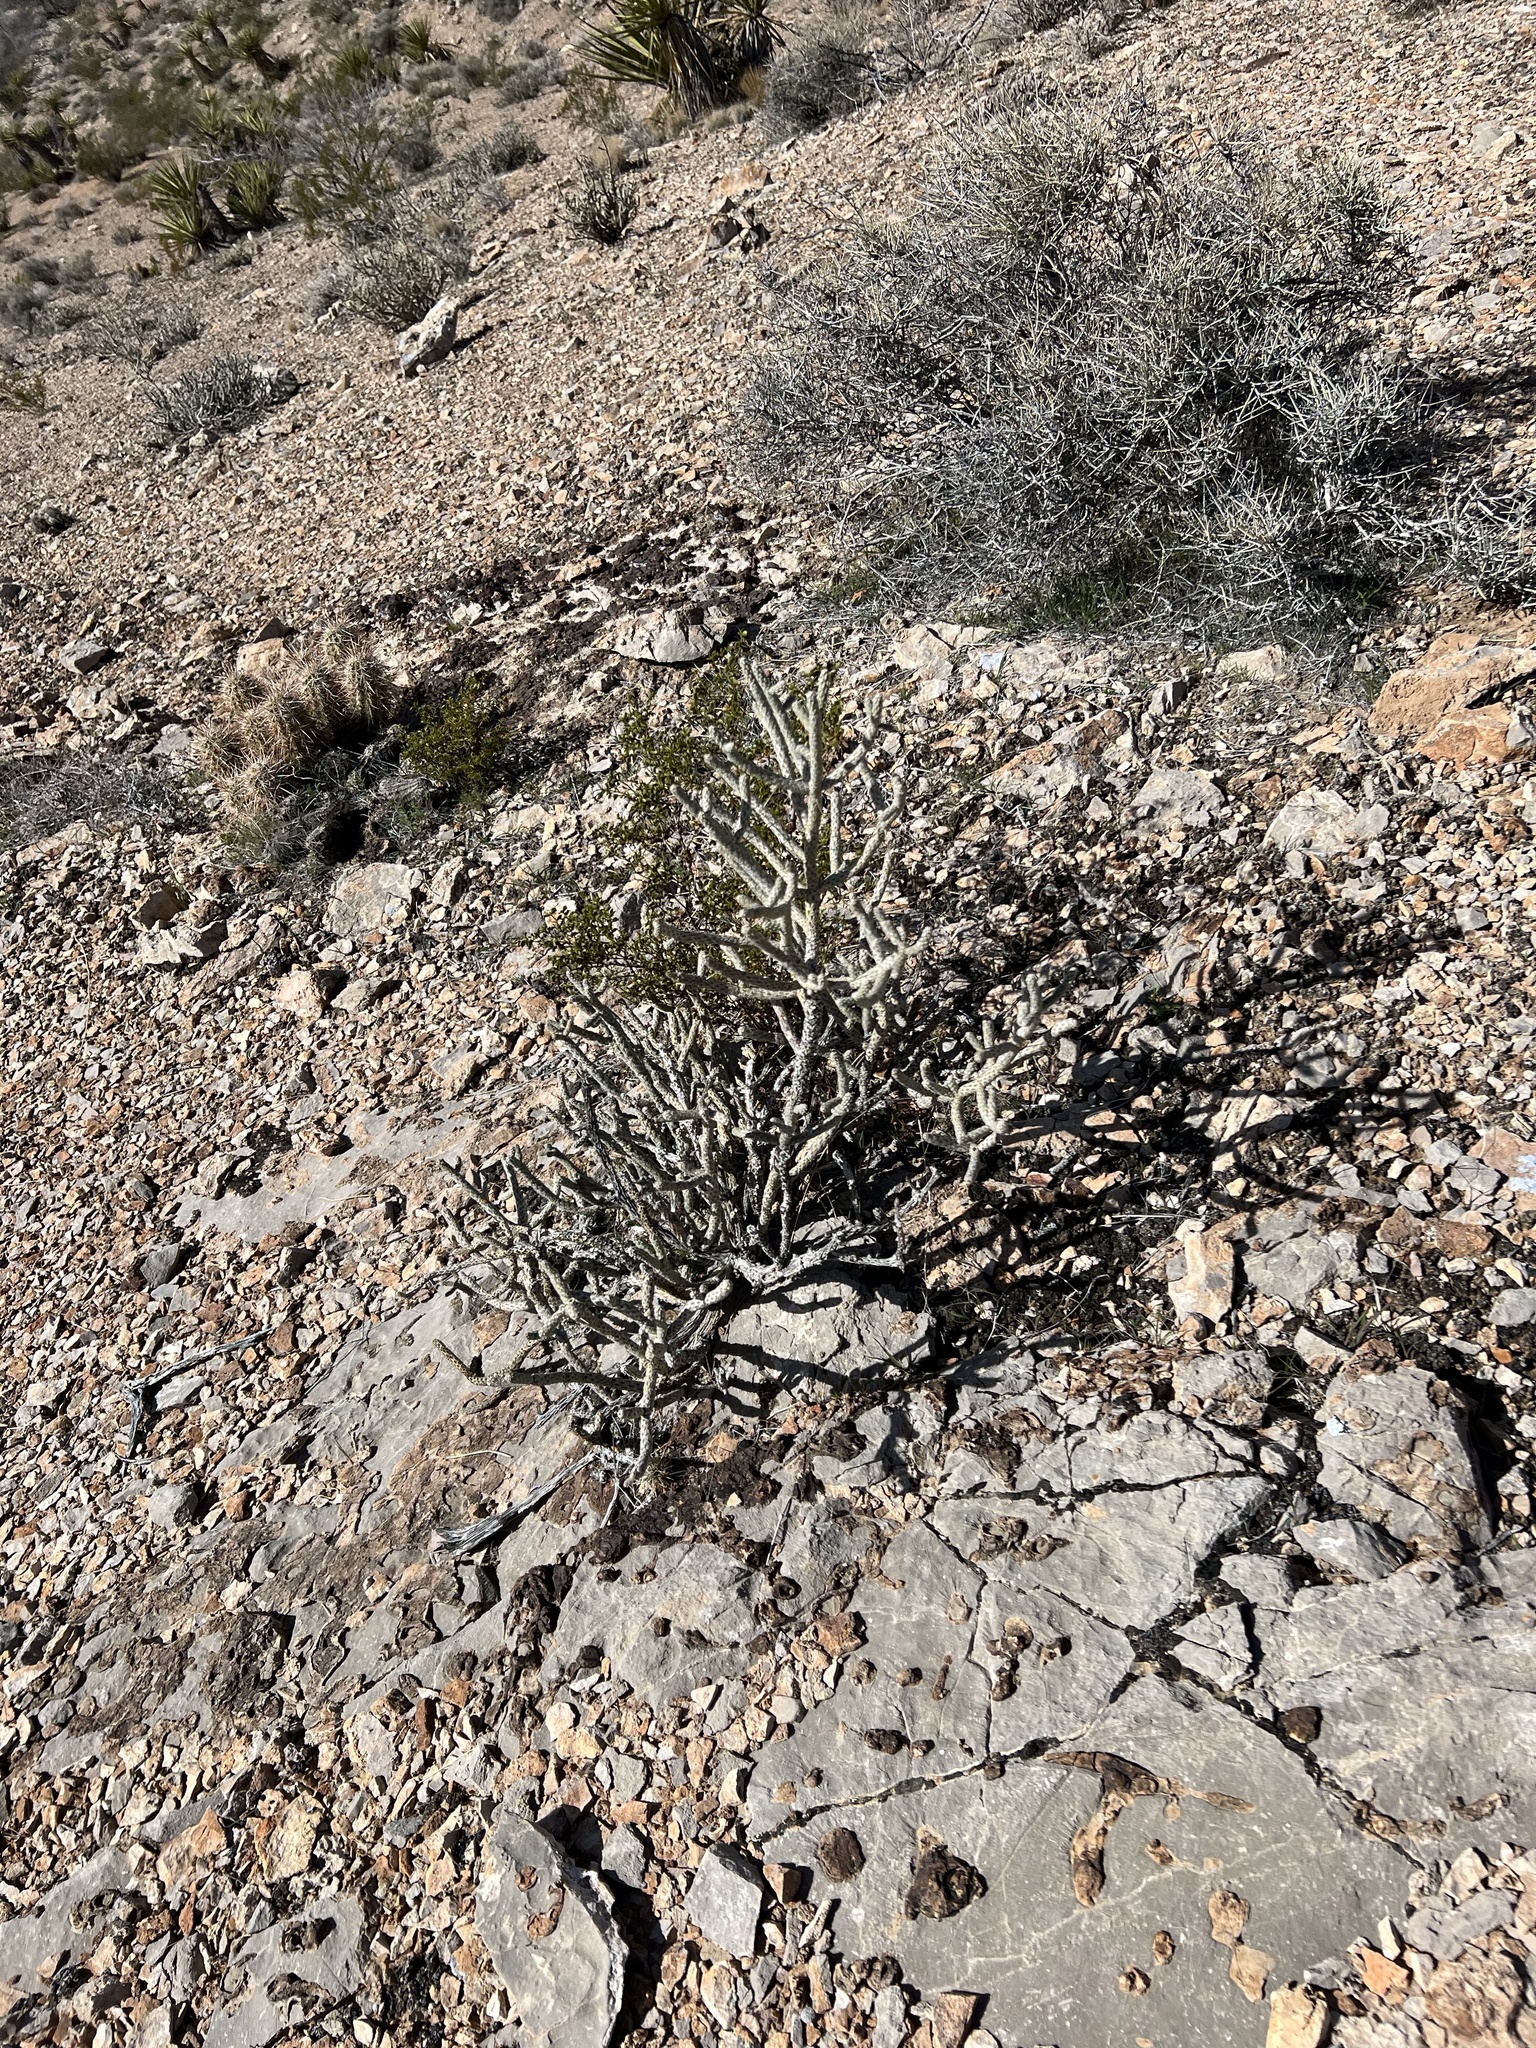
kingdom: Plantae
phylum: Tracheophyta
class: Magnoliopsida
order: Caryophyllales
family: Cactaceae
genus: Cylindropuntia
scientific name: Cylindropuntia ramosissima
